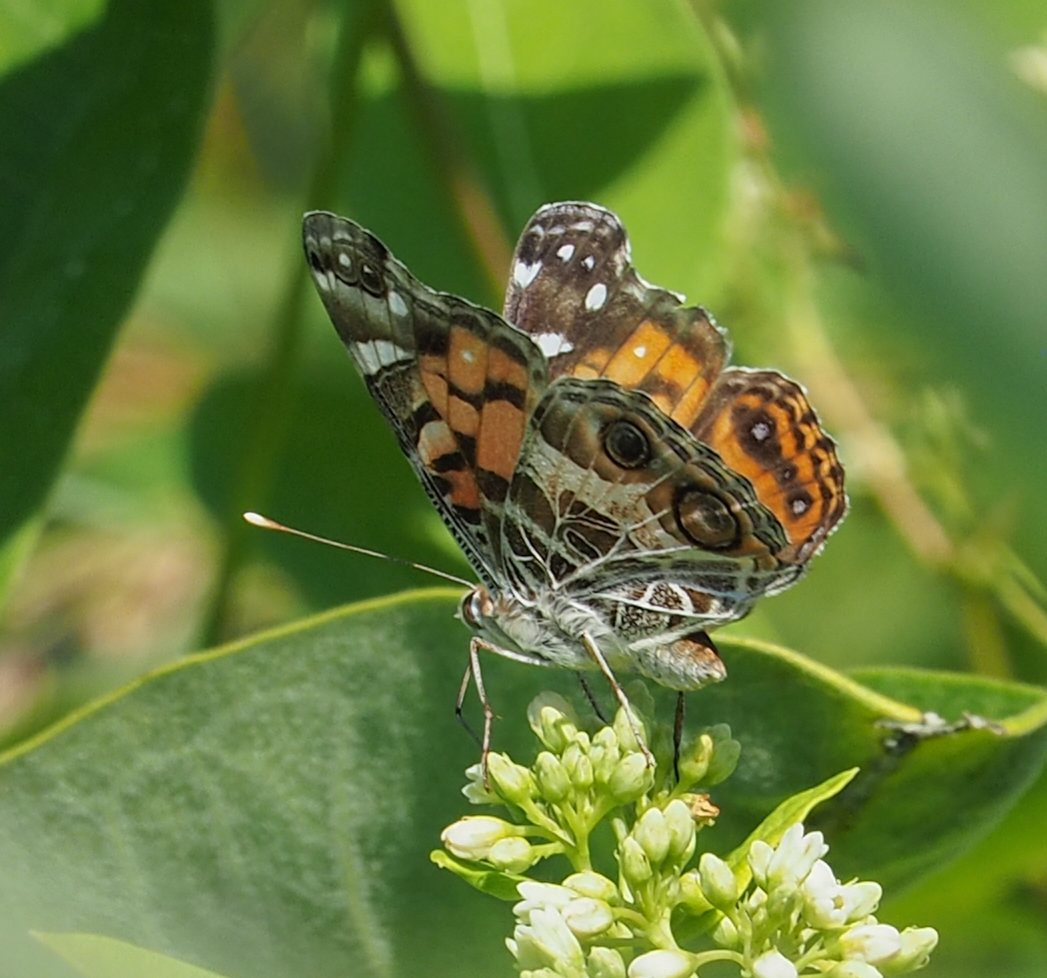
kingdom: Animalia
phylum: Arthropoda
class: Insecta
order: Lepidoptera
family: Nymphalidae
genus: Vanessa
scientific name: Vanessa virginiensis
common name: American lady
